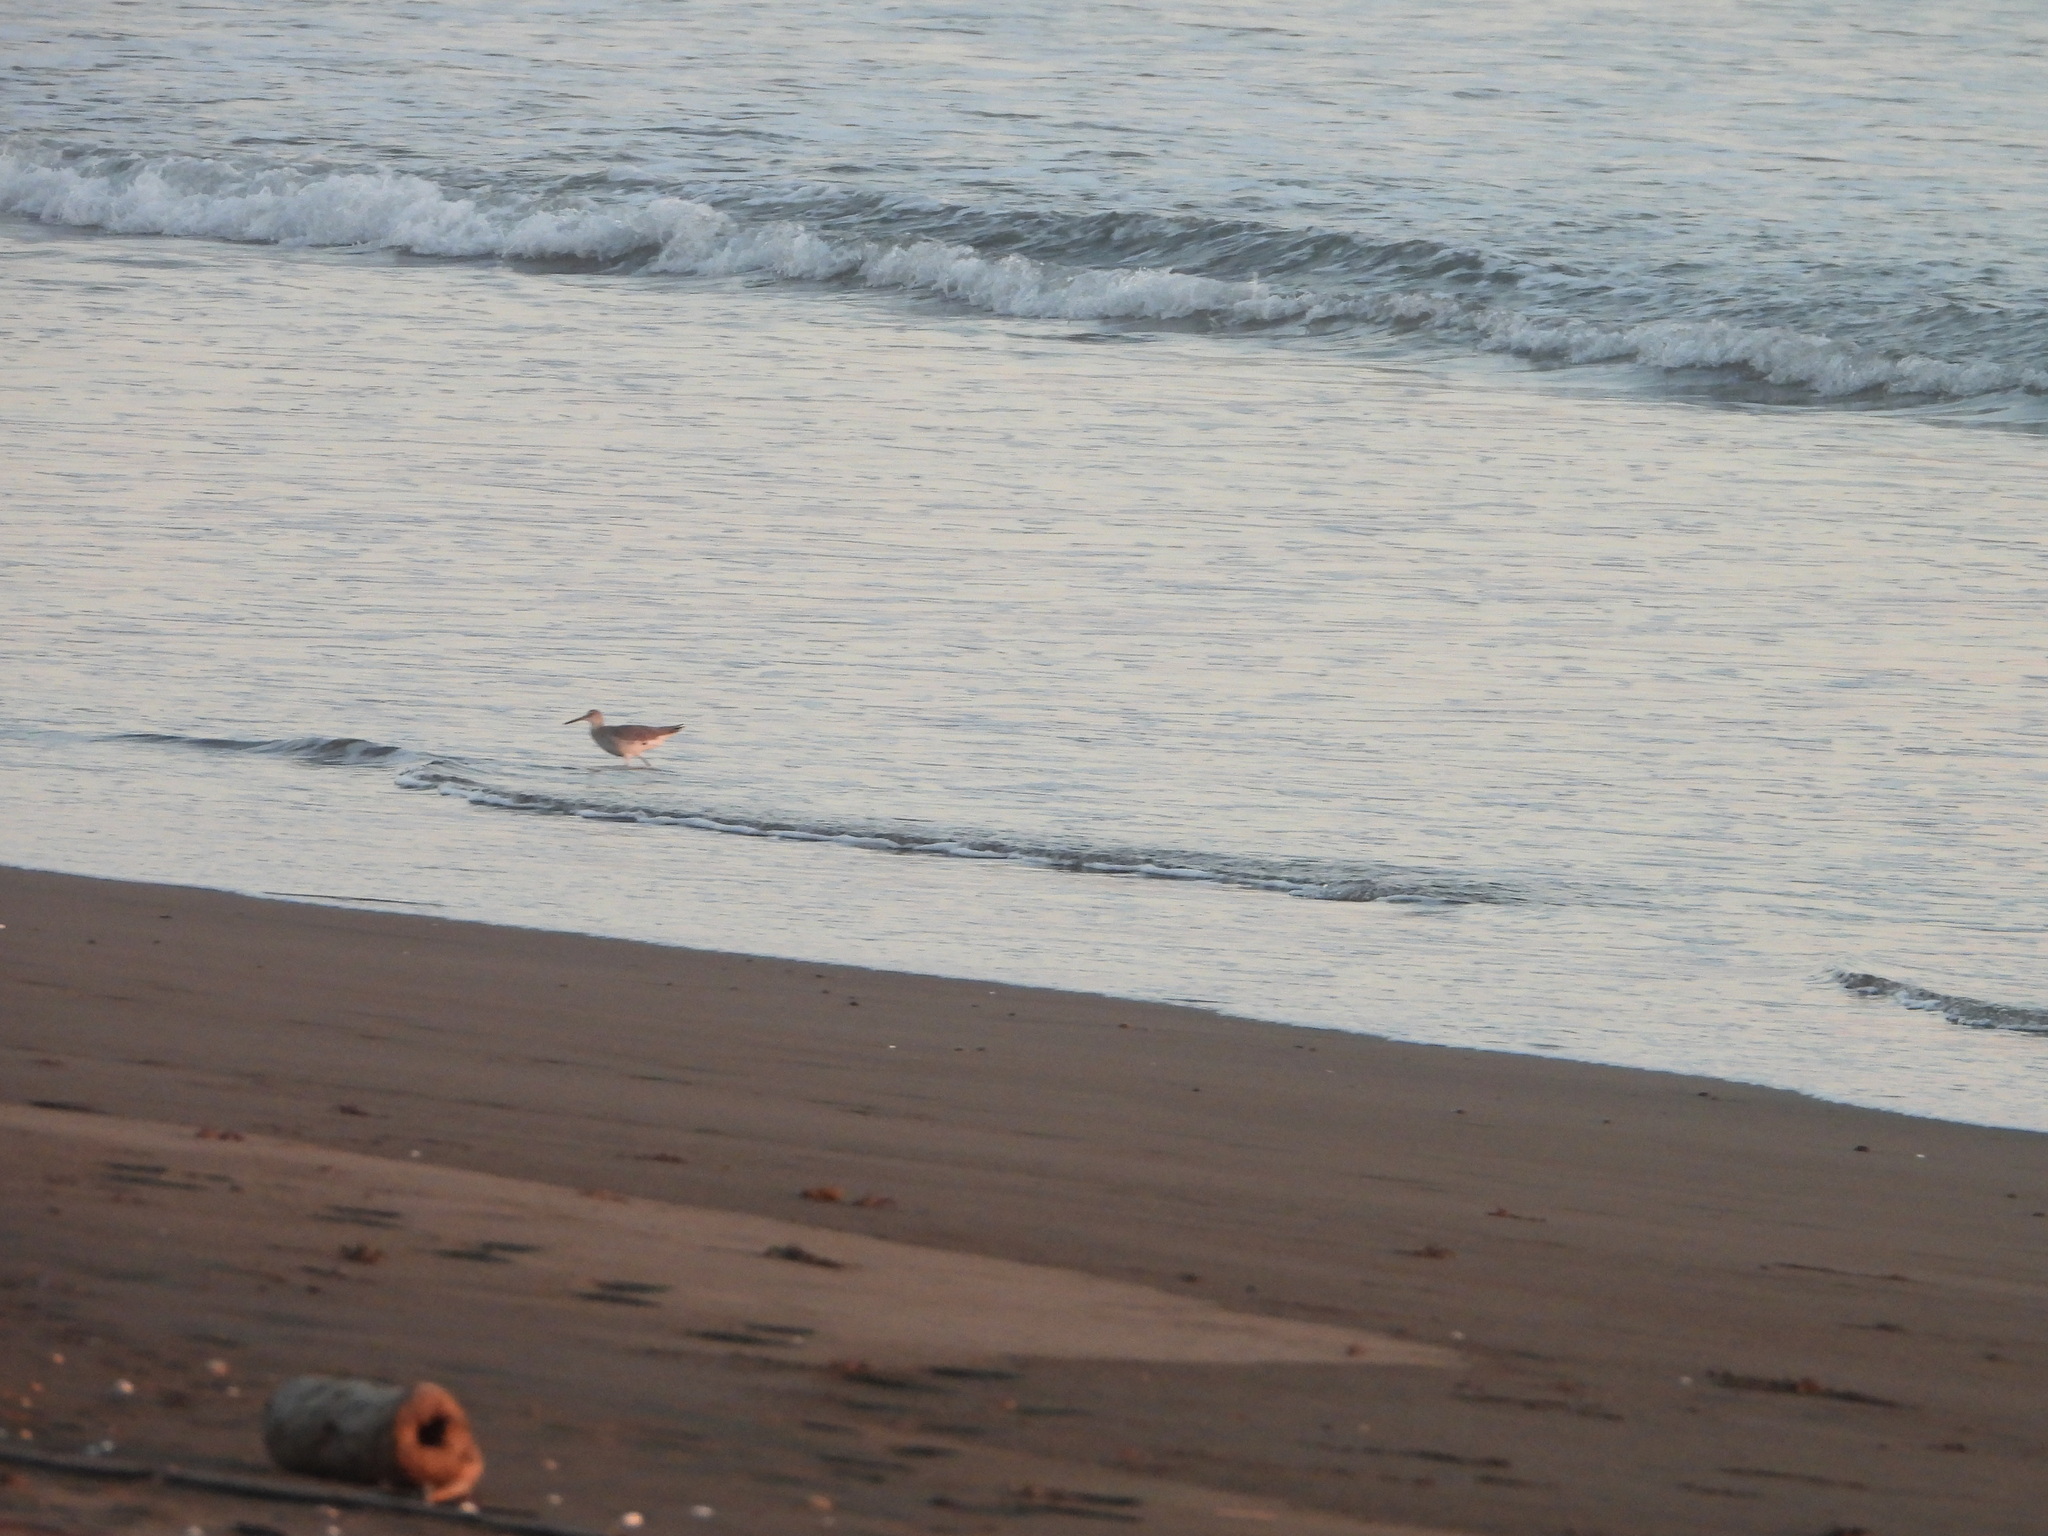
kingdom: Animalia
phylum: Chordata
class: Aves
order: Charadriiformes
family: Scolopacidae
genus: Tringa
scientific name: Tringa semipalmata
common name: Willet
